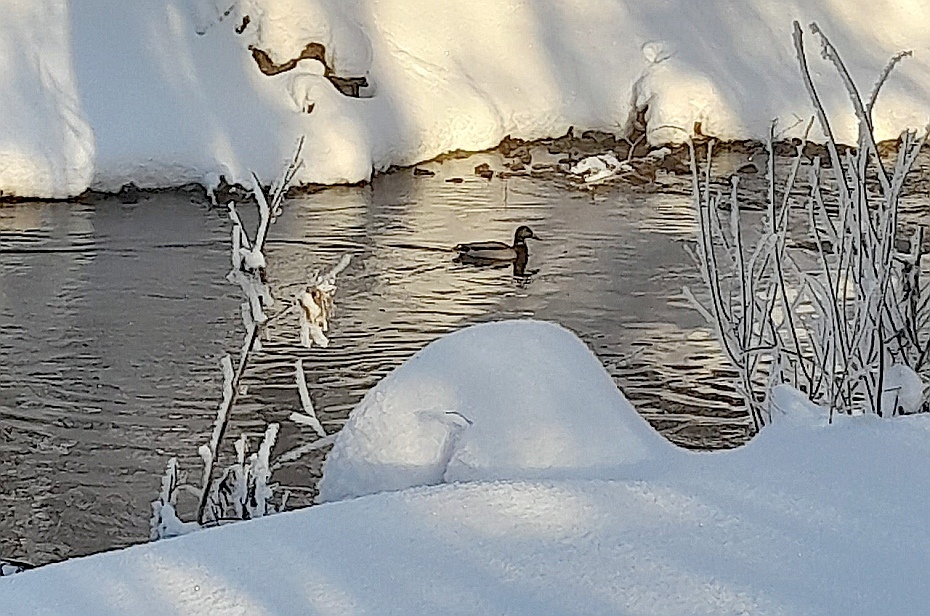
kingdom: Animalia
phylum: Chordata
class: Aves
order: Anseriformes
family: Anatidae
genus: Anas
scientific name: Anas platyrhynchos
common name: Mallard
